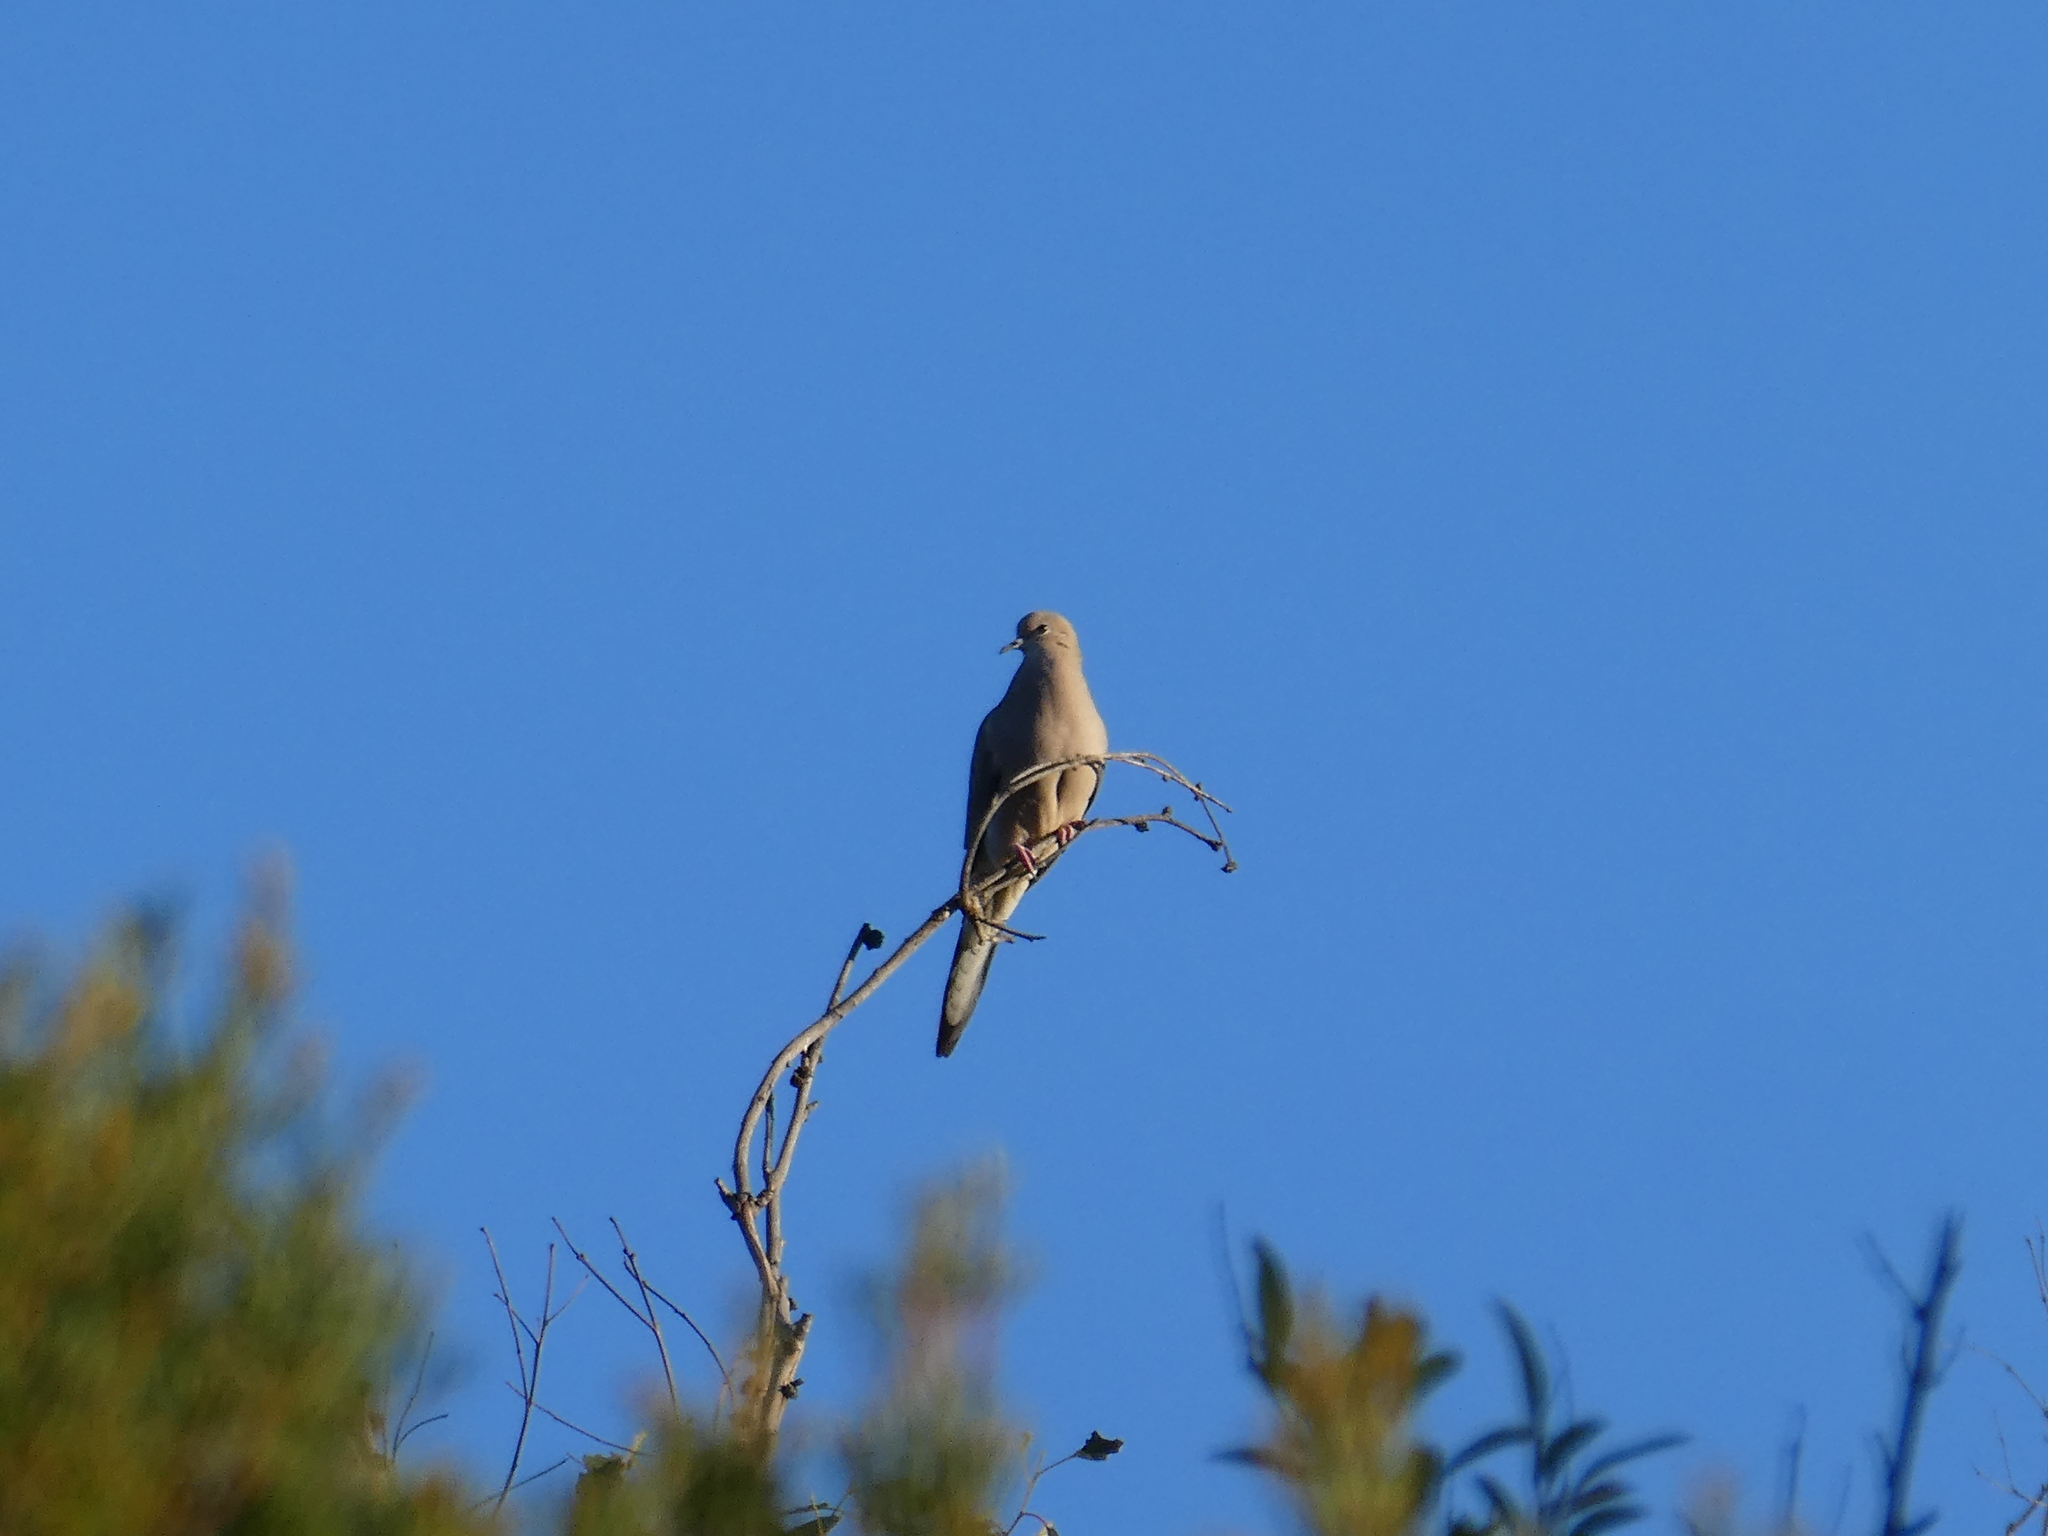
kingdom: Animalia
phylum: Chordata
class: Aves
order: Columbiformes
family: Columbidae
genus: Zenaida
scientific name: Zenaida macroura
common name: Mourning dove
